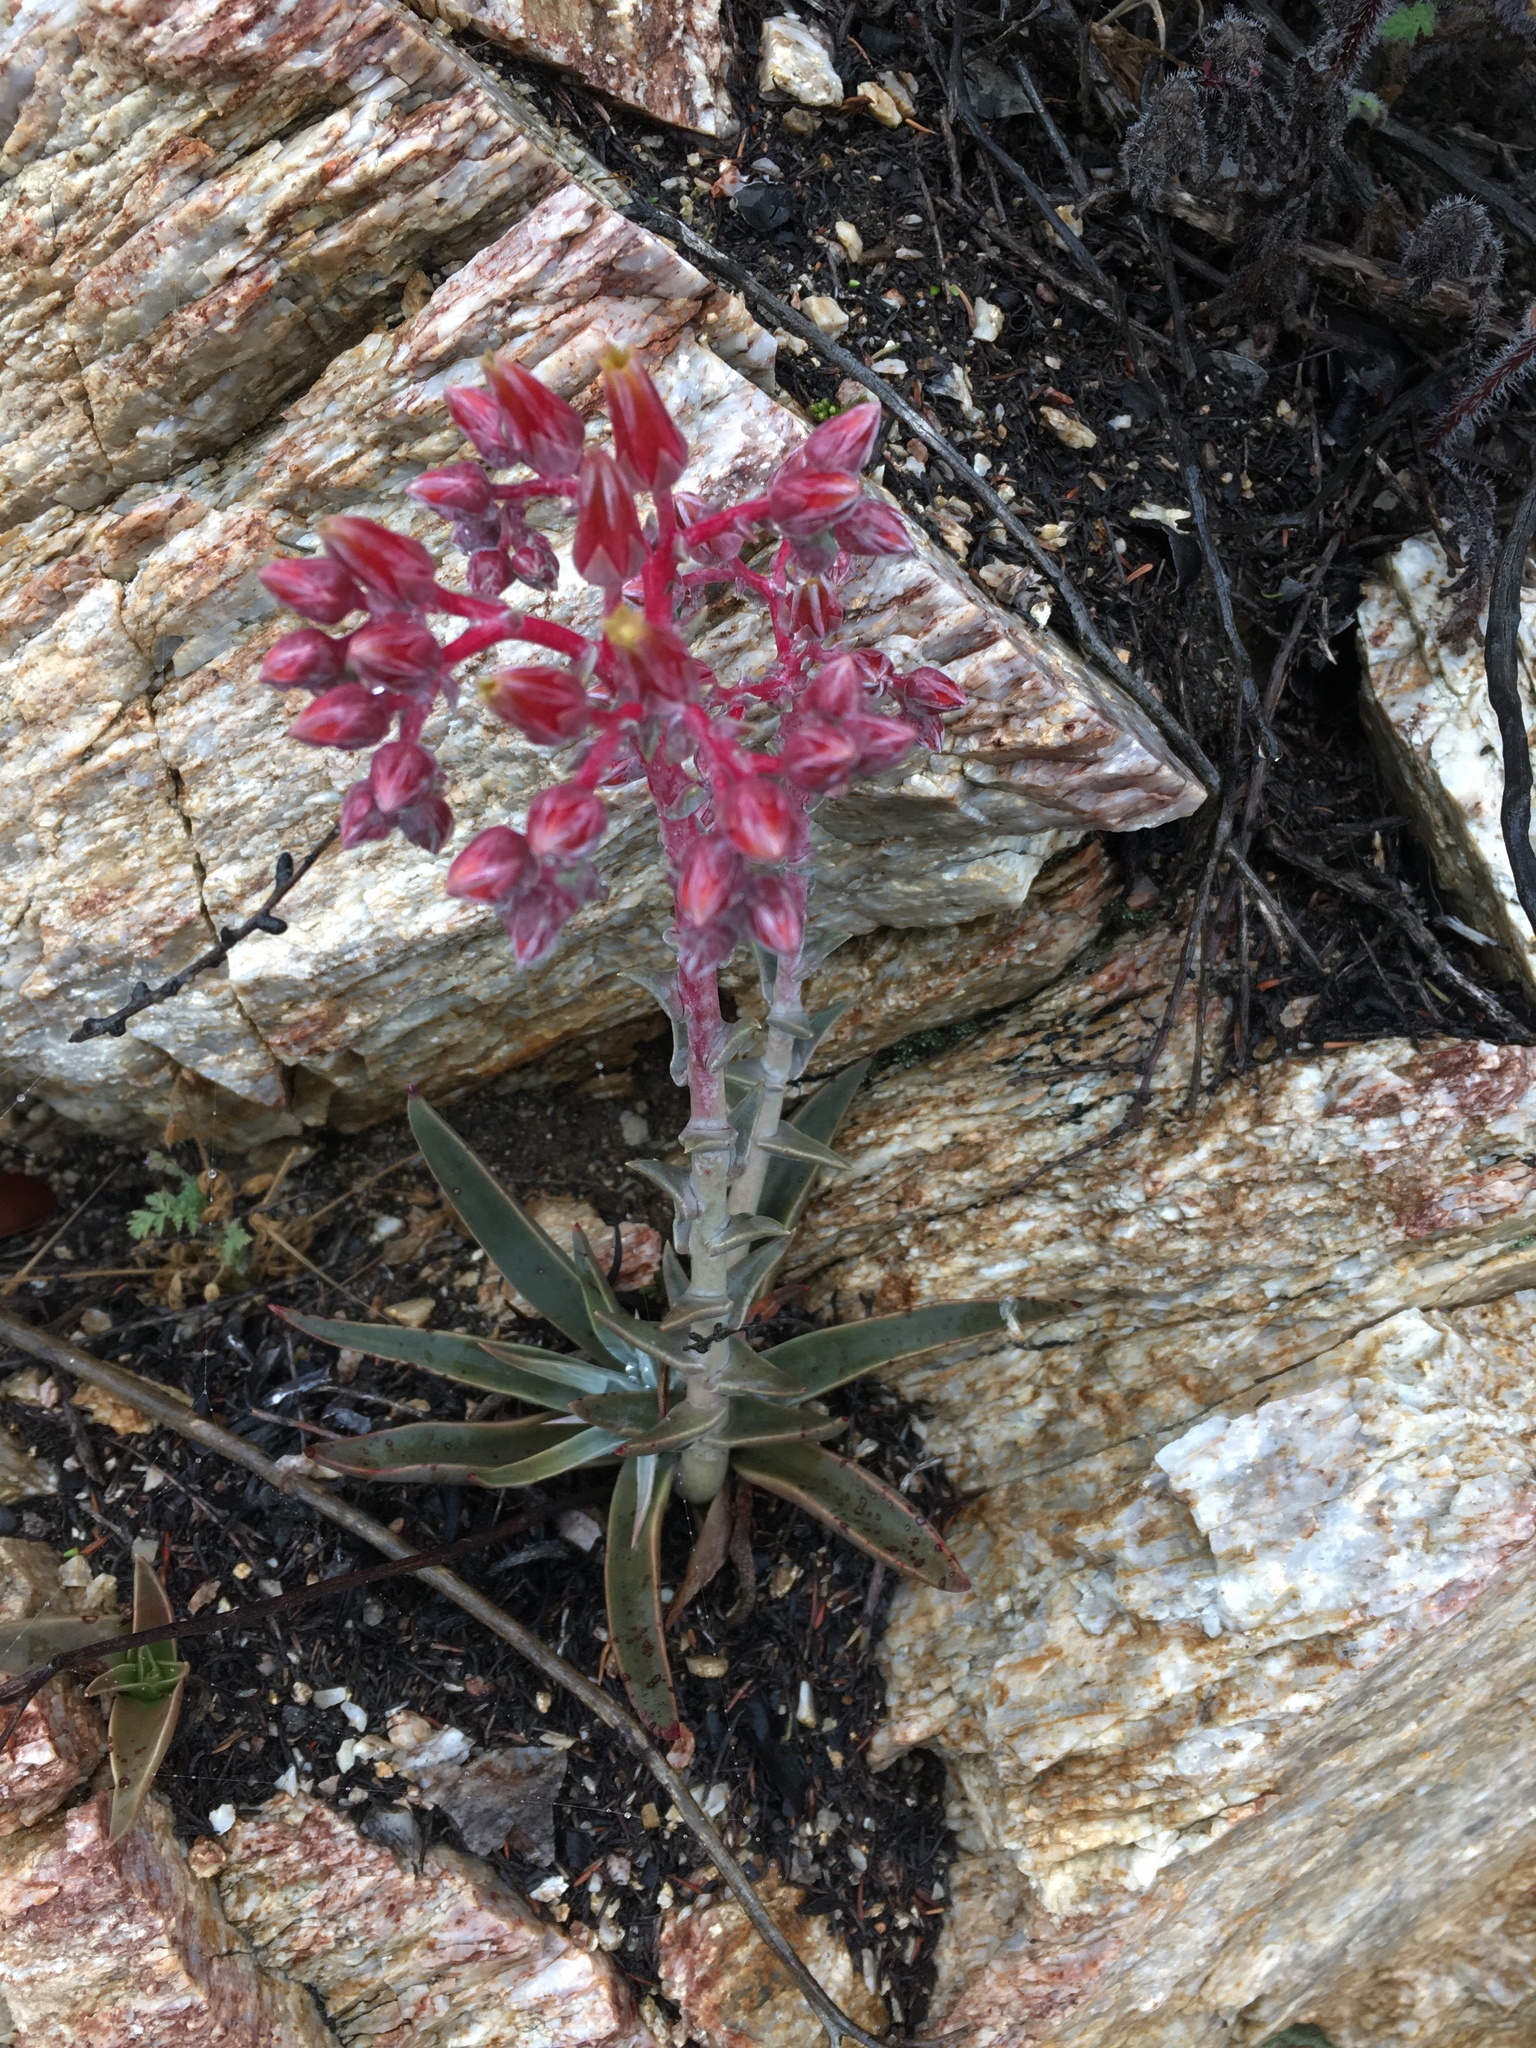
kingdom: Plantae
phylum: Tracheophyta
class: Magnoliopsida
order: Saxifragales
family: Crassulaceae
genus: Dudleya
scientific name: Dudleya lanceolata
